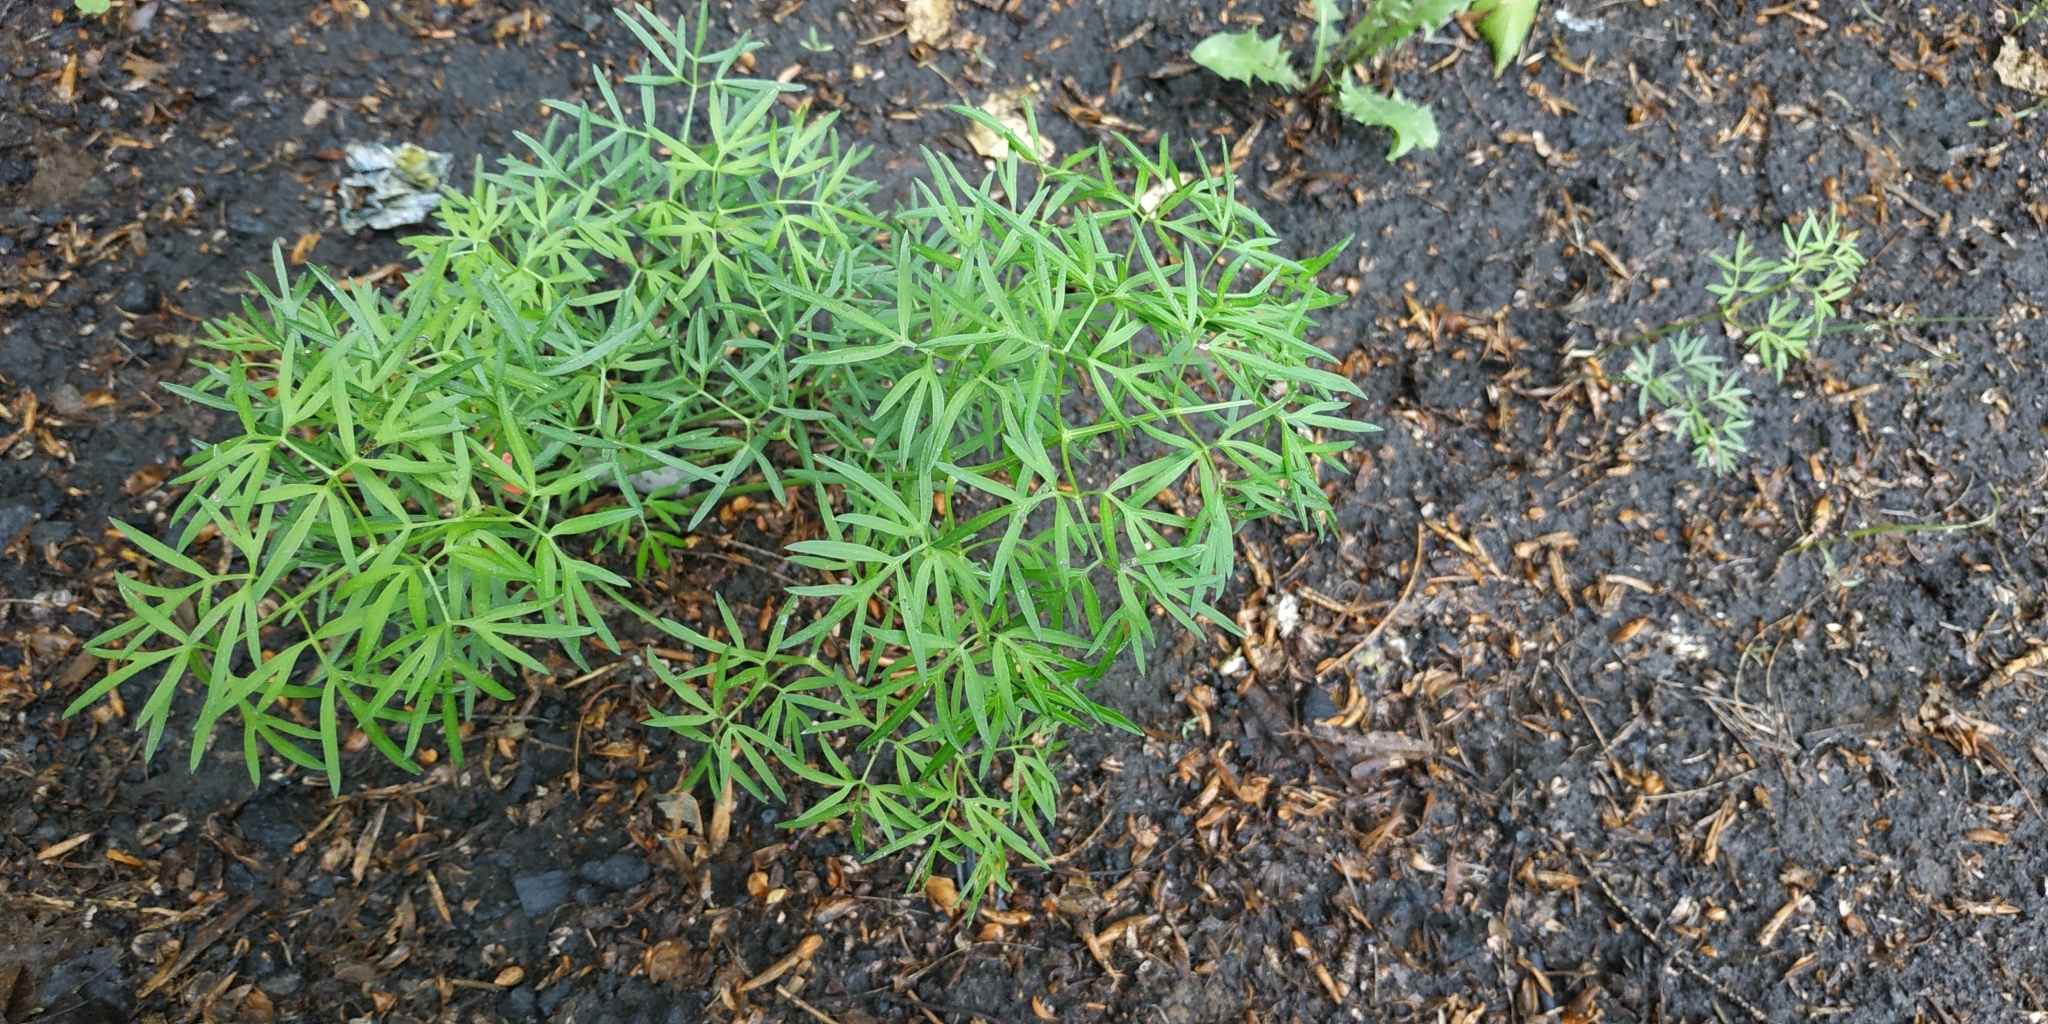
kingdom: Plantae
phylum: Tracheophyta
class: Magnoliopsida
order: Apiales
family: Apiaceae
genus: Cenolophium
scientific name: Cenolophium fischeri
